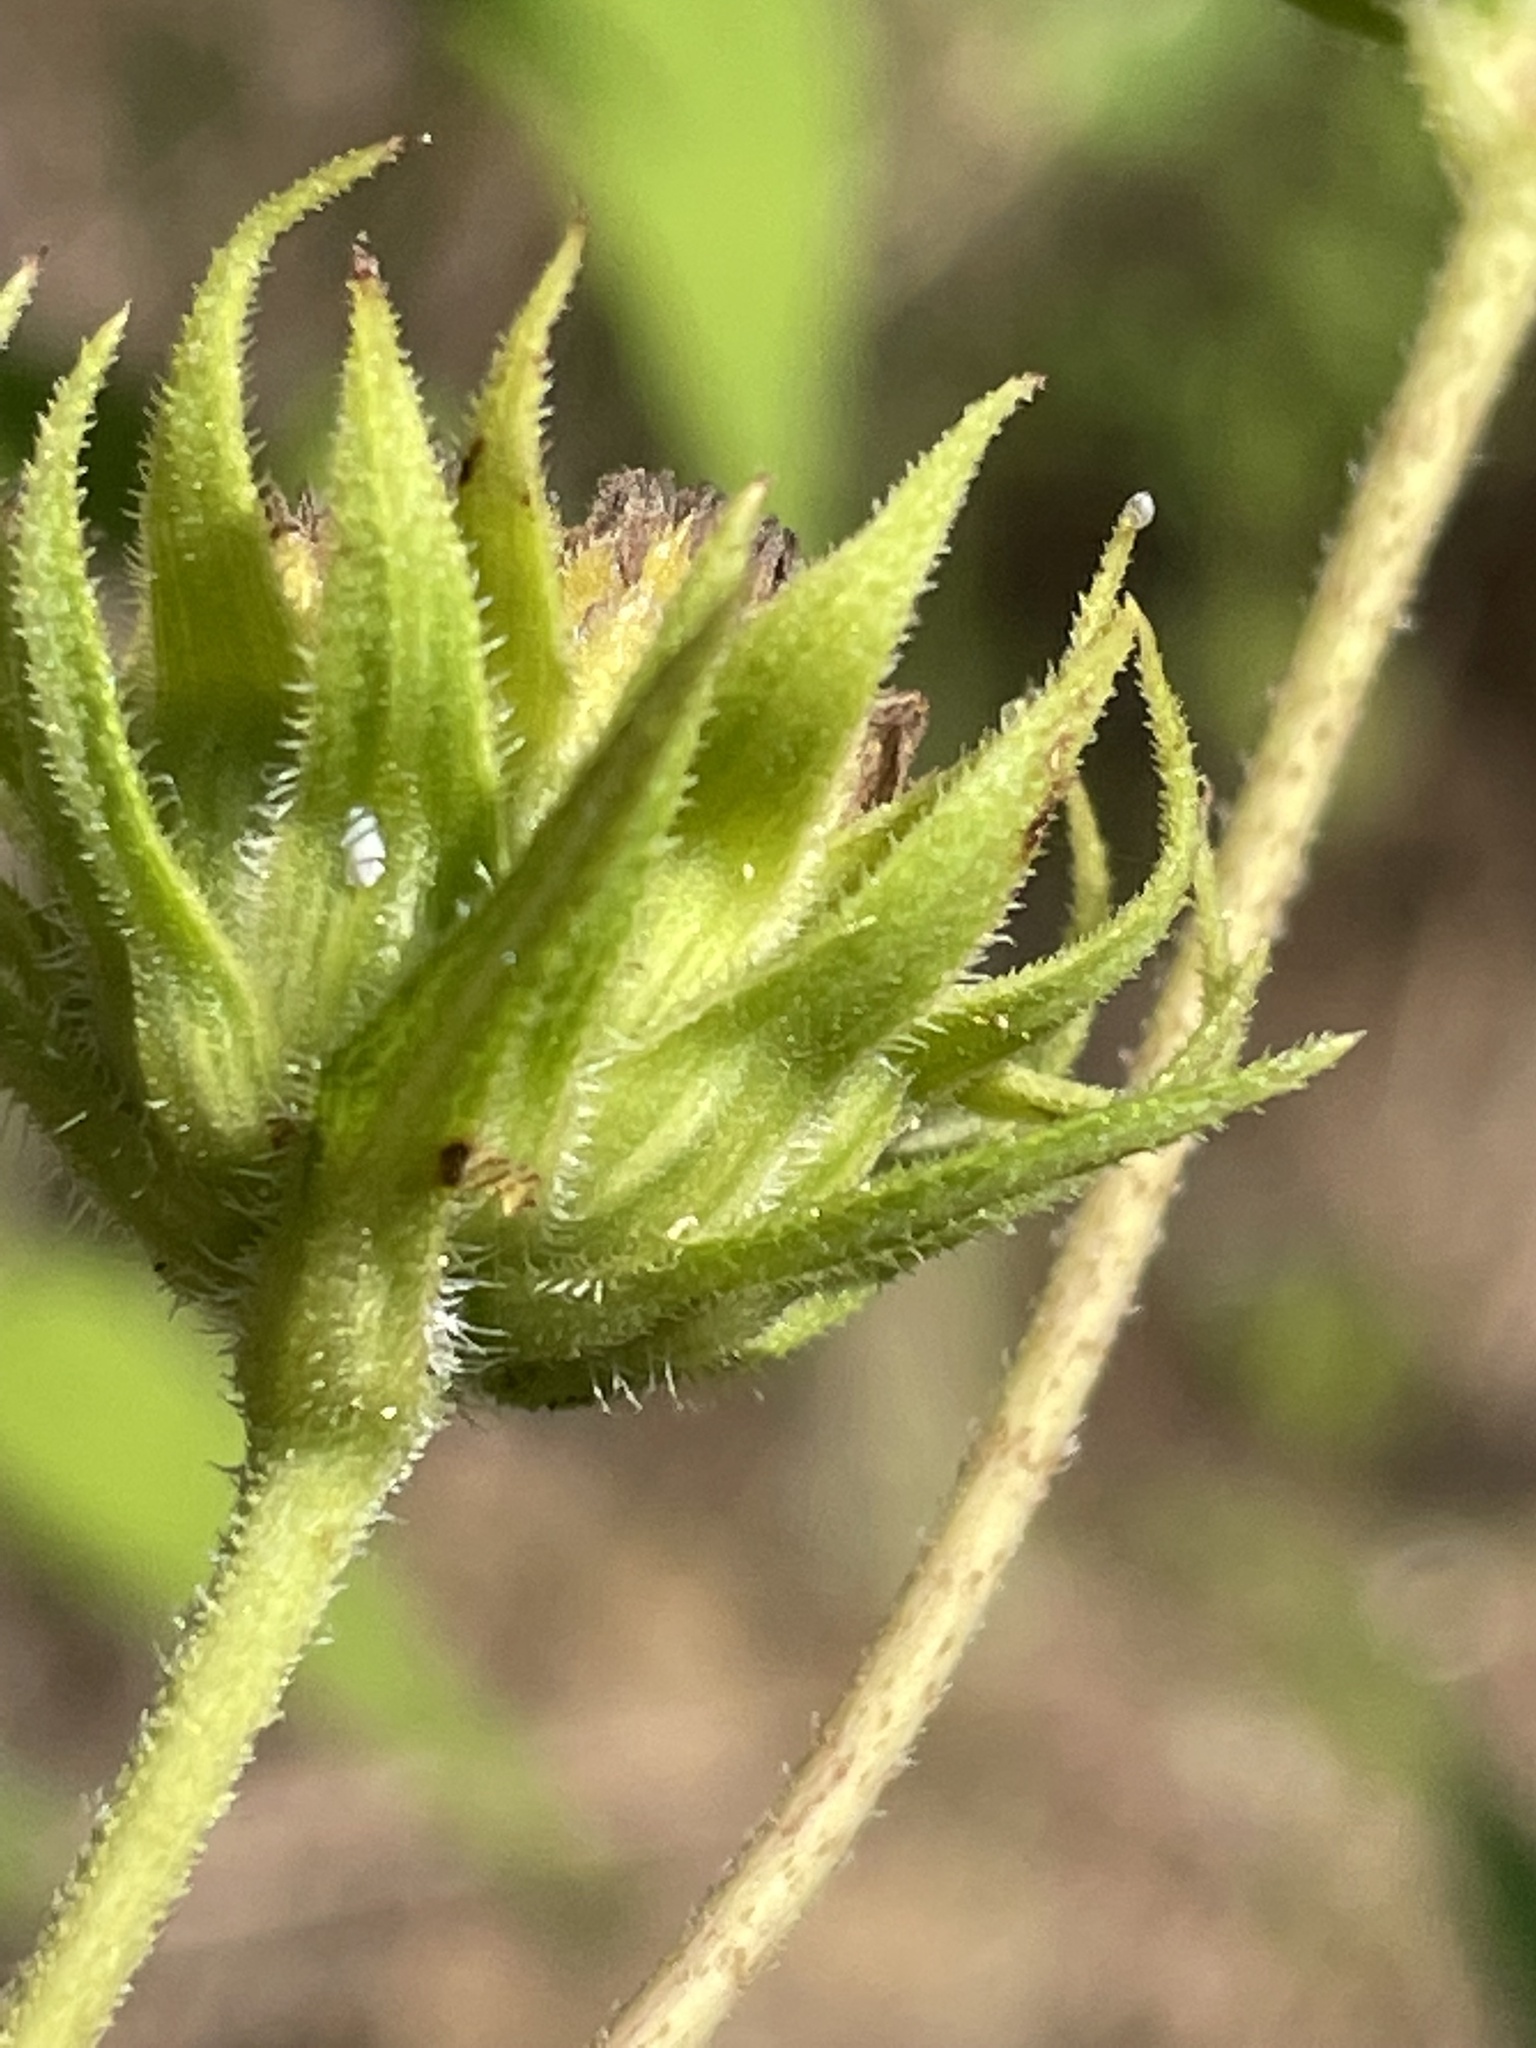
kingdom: Plantae
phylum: Tracheophyta
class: Magnoliopsida
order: Asterales
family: Asteraceae
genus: Helianthus
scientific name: Helianthus divaricatus
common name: Divergent sunflower
